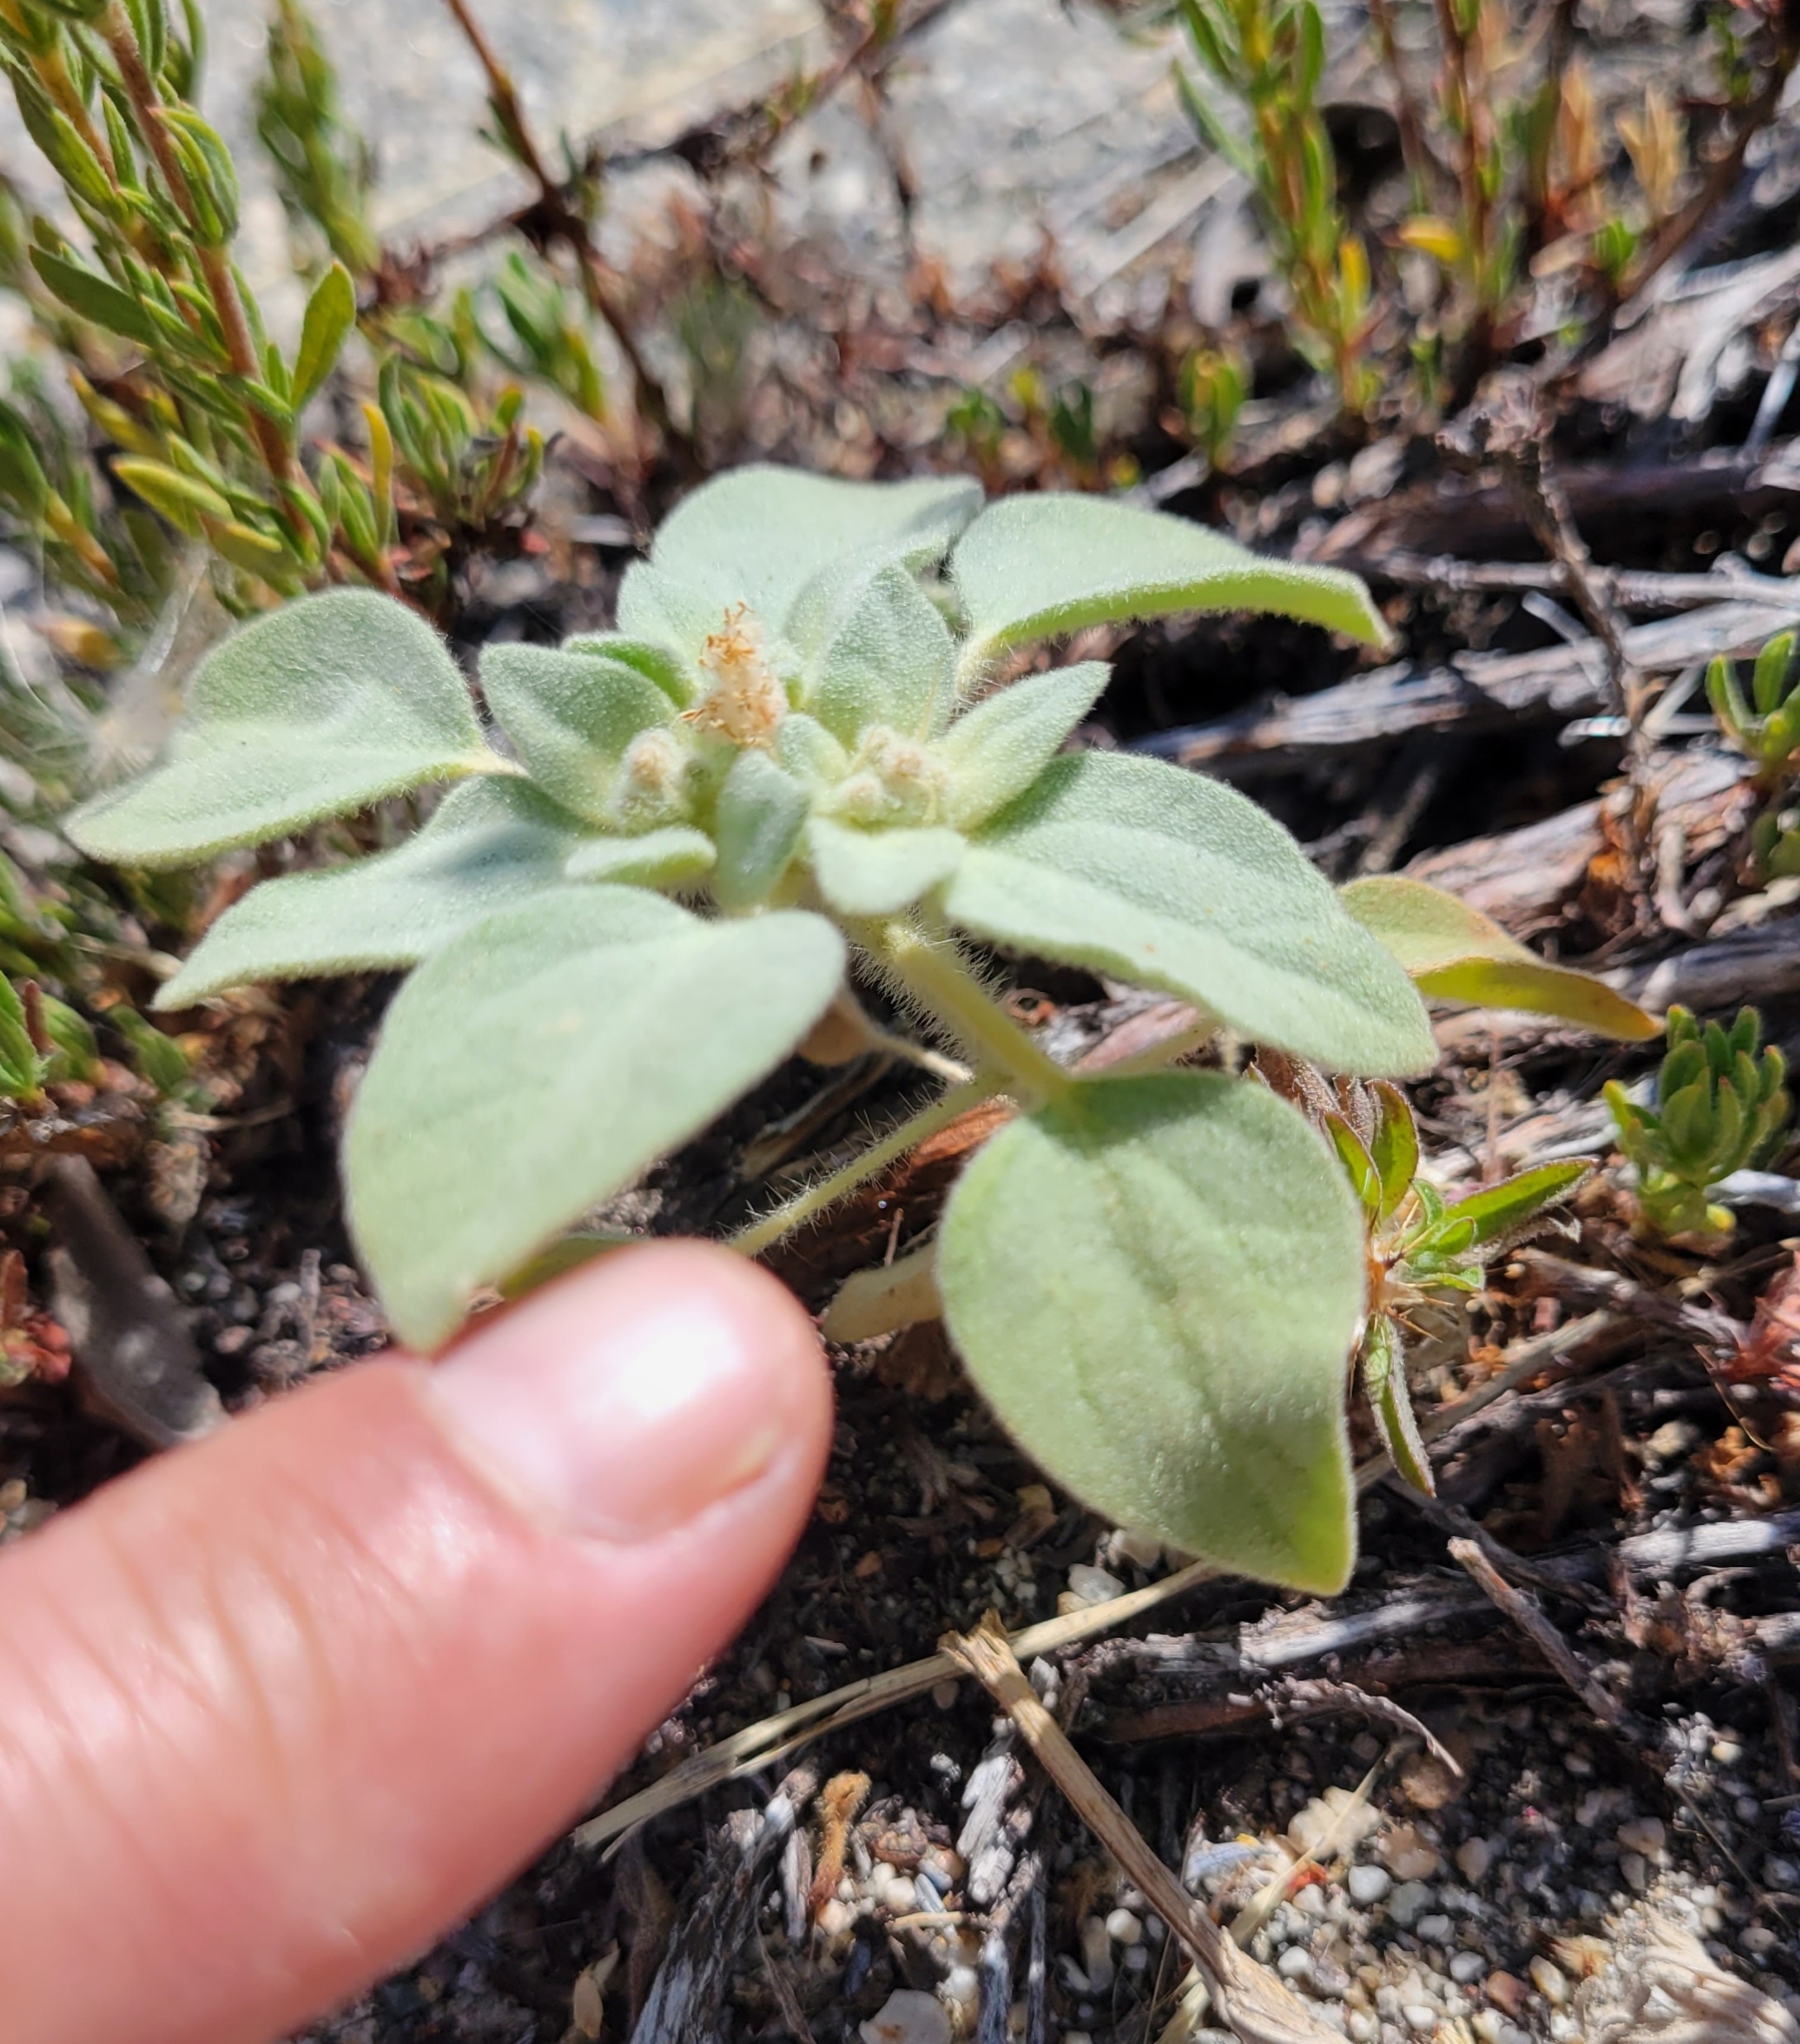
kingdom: Plantae
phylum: Tracheophyta
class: Magnoliopsida
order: Malpighiales
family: Euphorbiaceae
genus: Croton
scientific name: Croton setiger
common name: Dove weed
